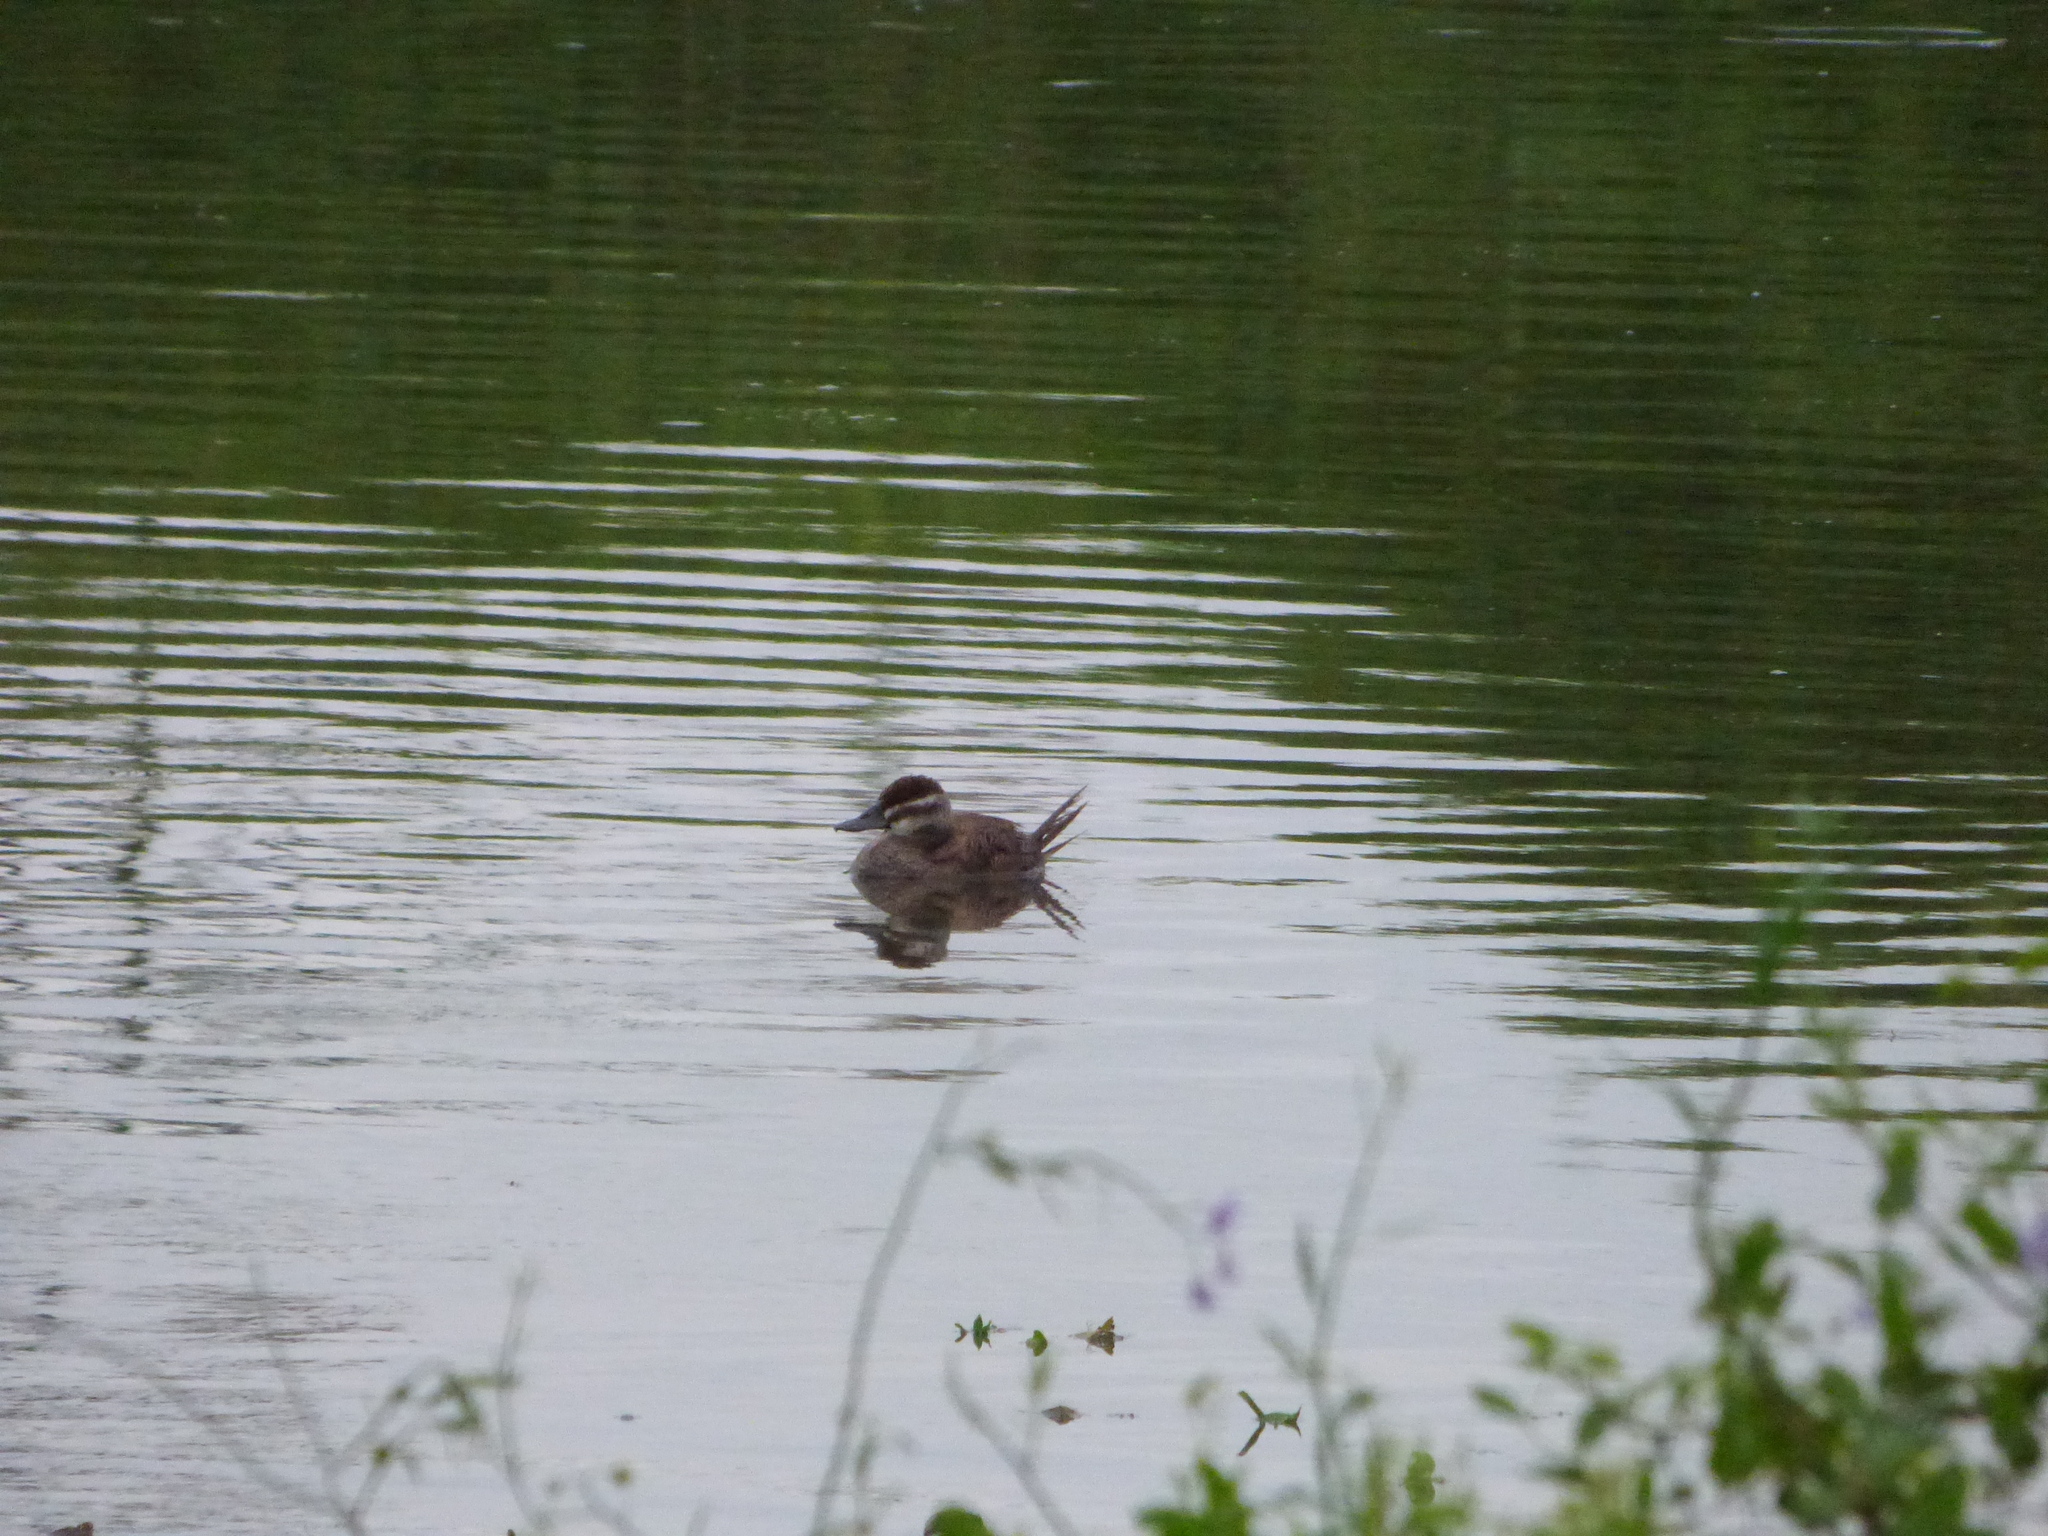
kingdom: Animalia
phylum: Chordata
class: Aves
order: Anseriformes
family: Anatidae
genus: Oxyura
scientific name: Oxyura vittata
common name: Lake duck
